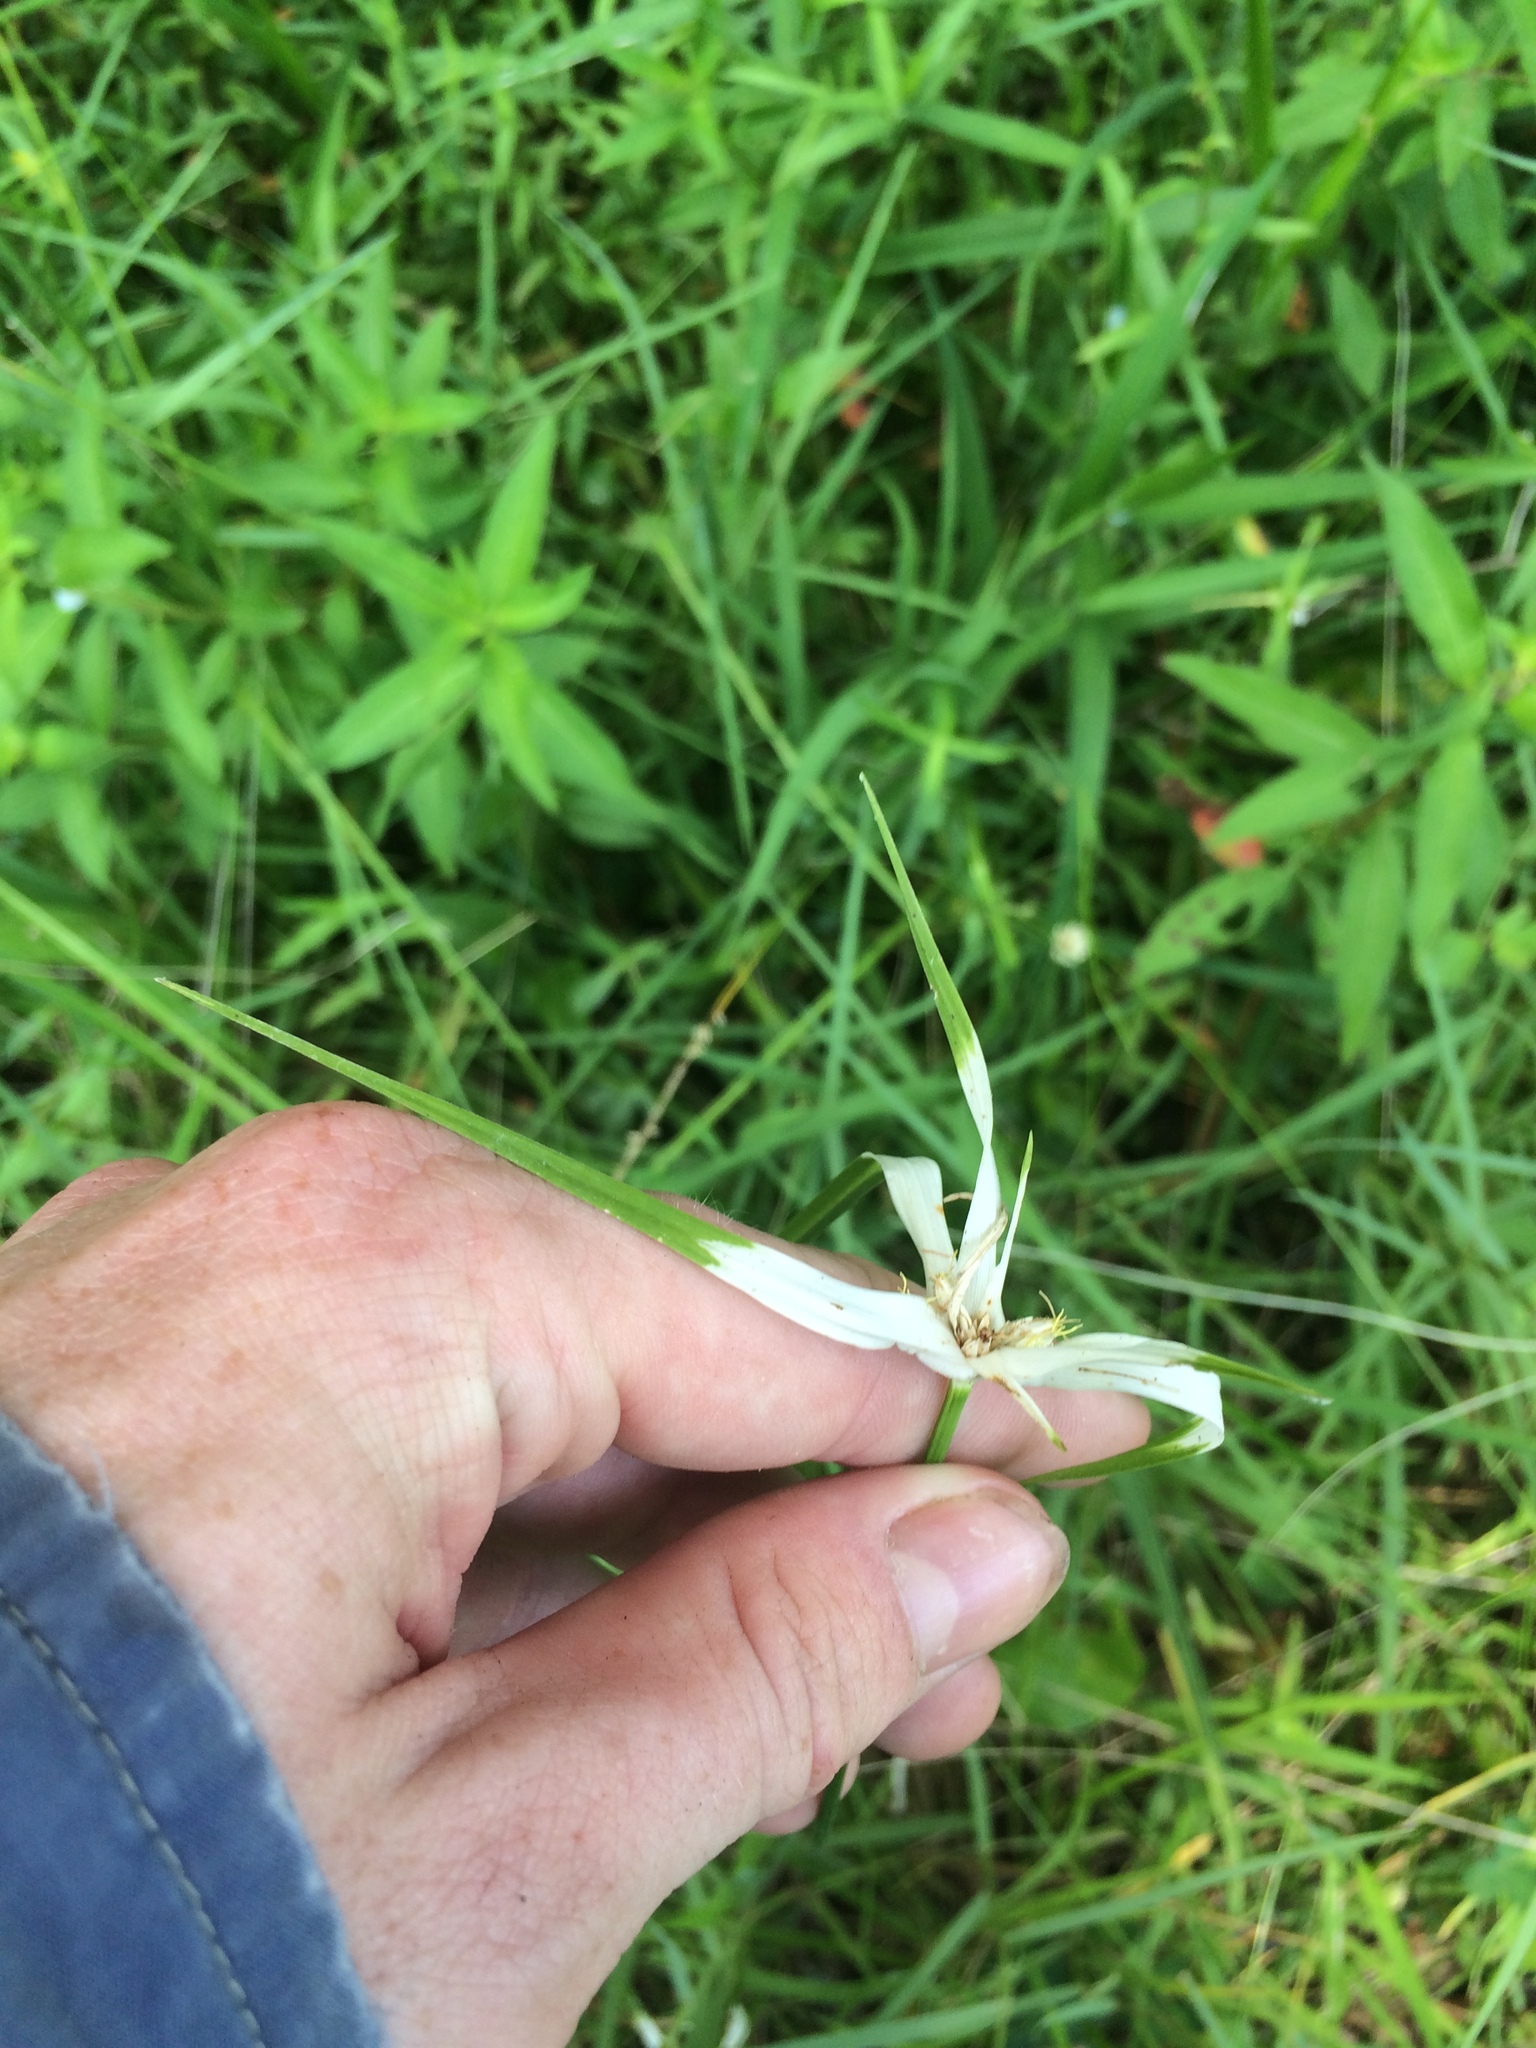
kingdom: Plantae
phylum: Tracheophyta
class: Liliopsida
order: Poales
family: Cyperaceae
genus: Rhynchospora
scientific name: Rhynchospora colorata
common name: Star sedge
